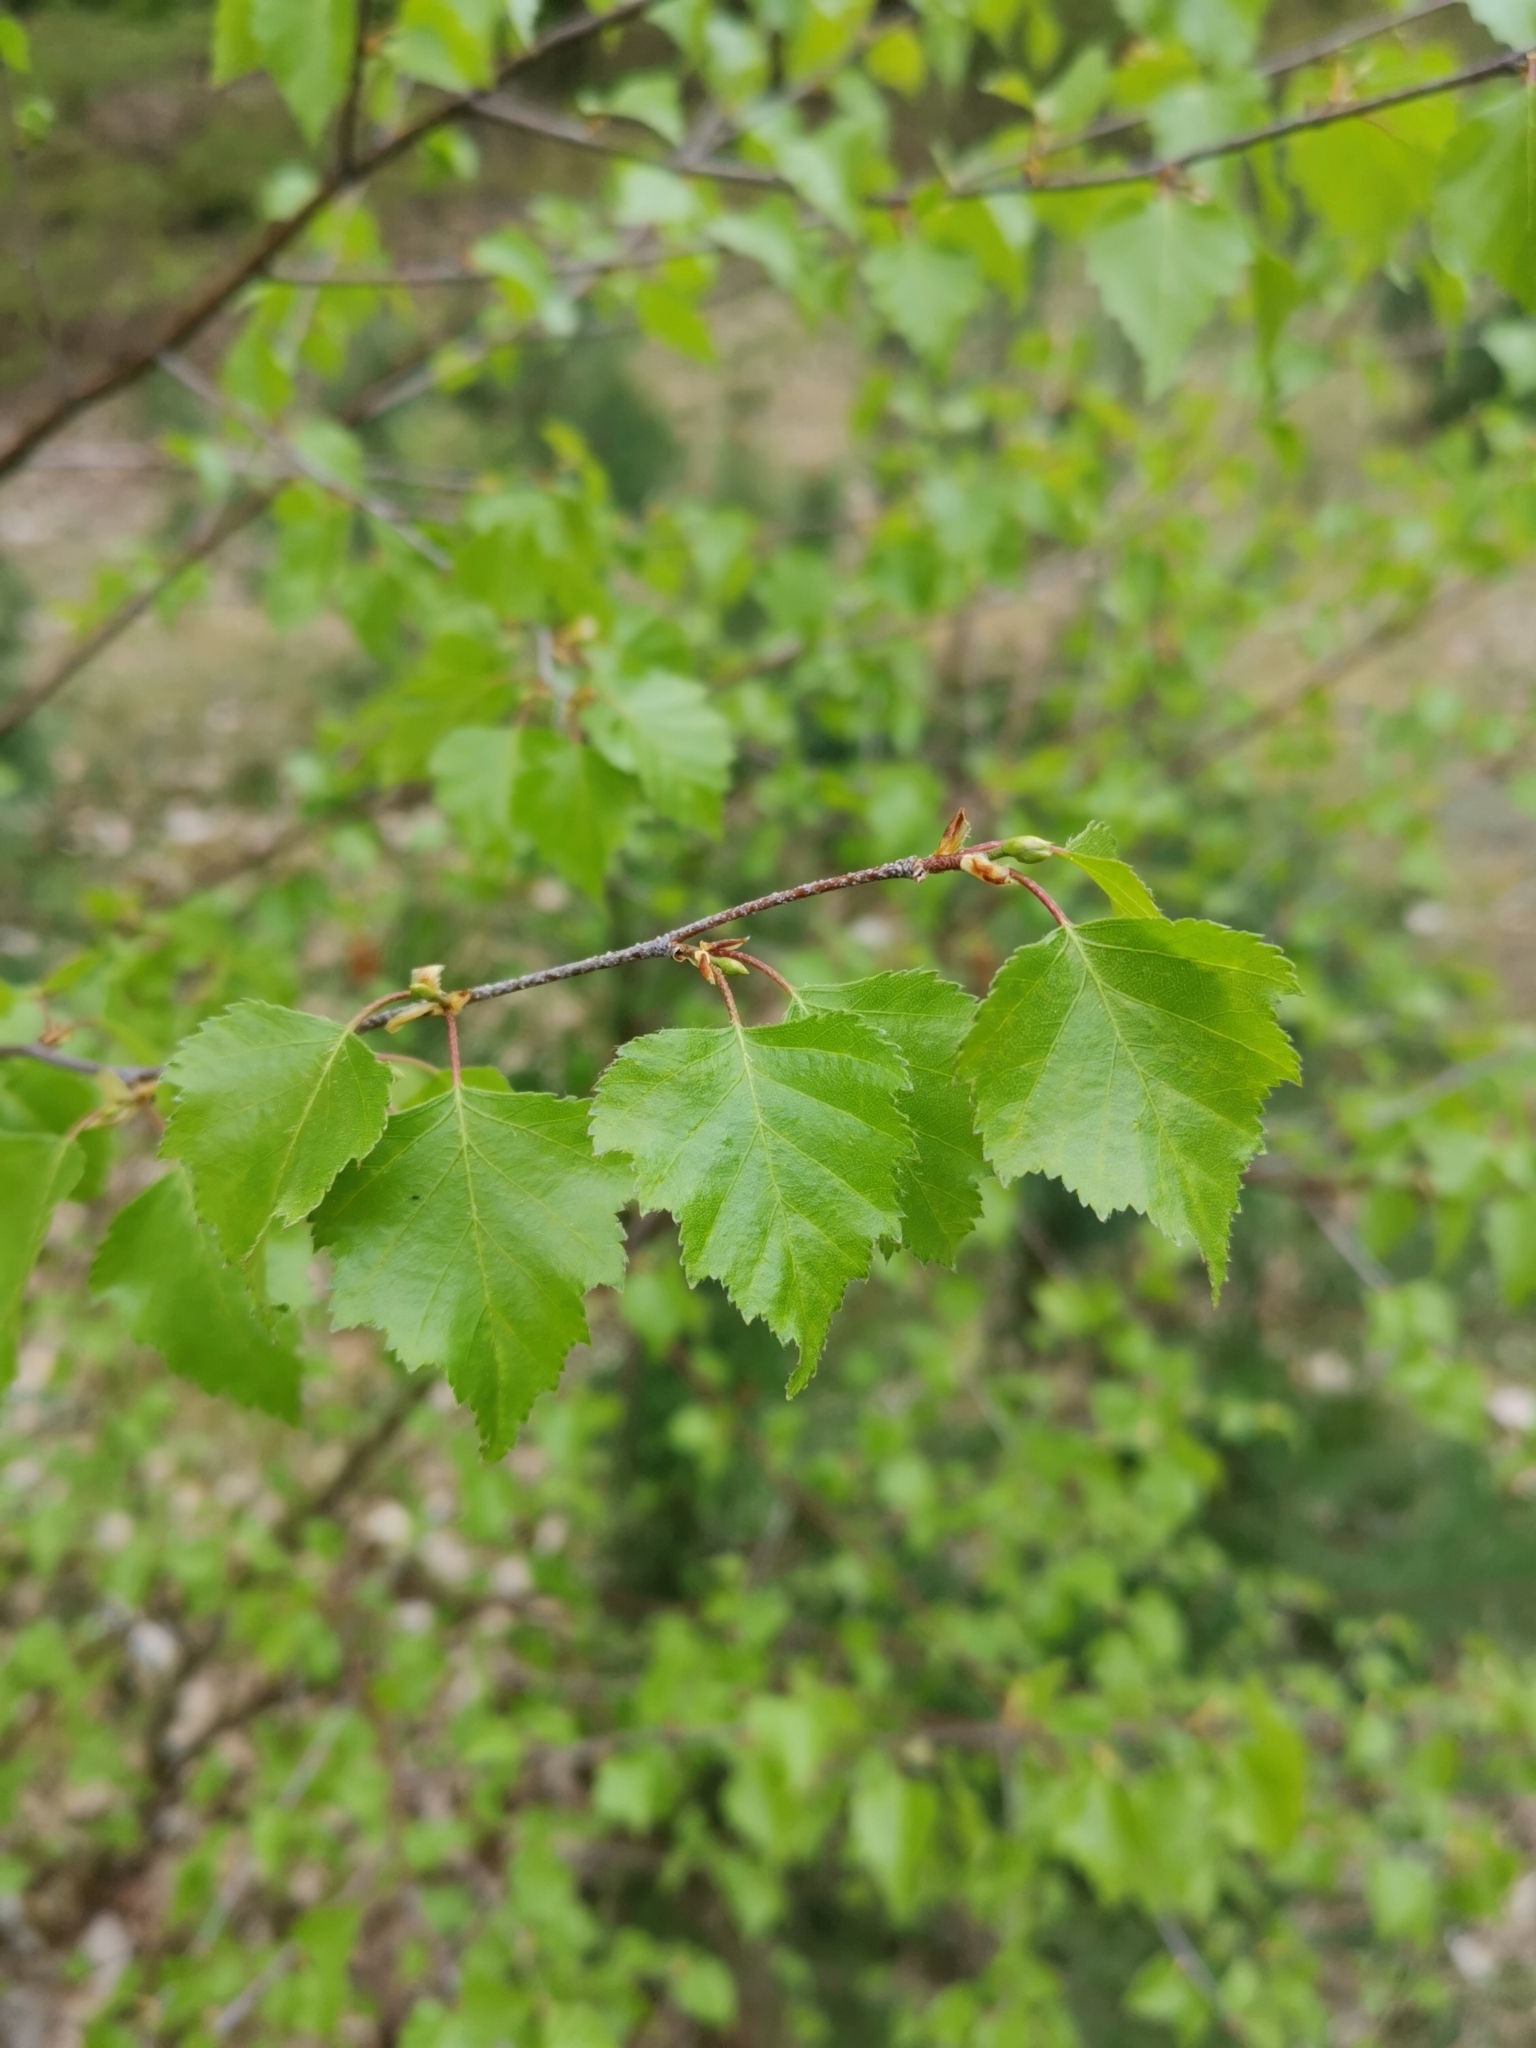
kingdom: Plantae
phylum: Tracheophyta
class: Magnoliopsida
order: Fagales
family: Betulaceae
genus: Betula
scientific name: Betula pendula
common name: Silver birch
